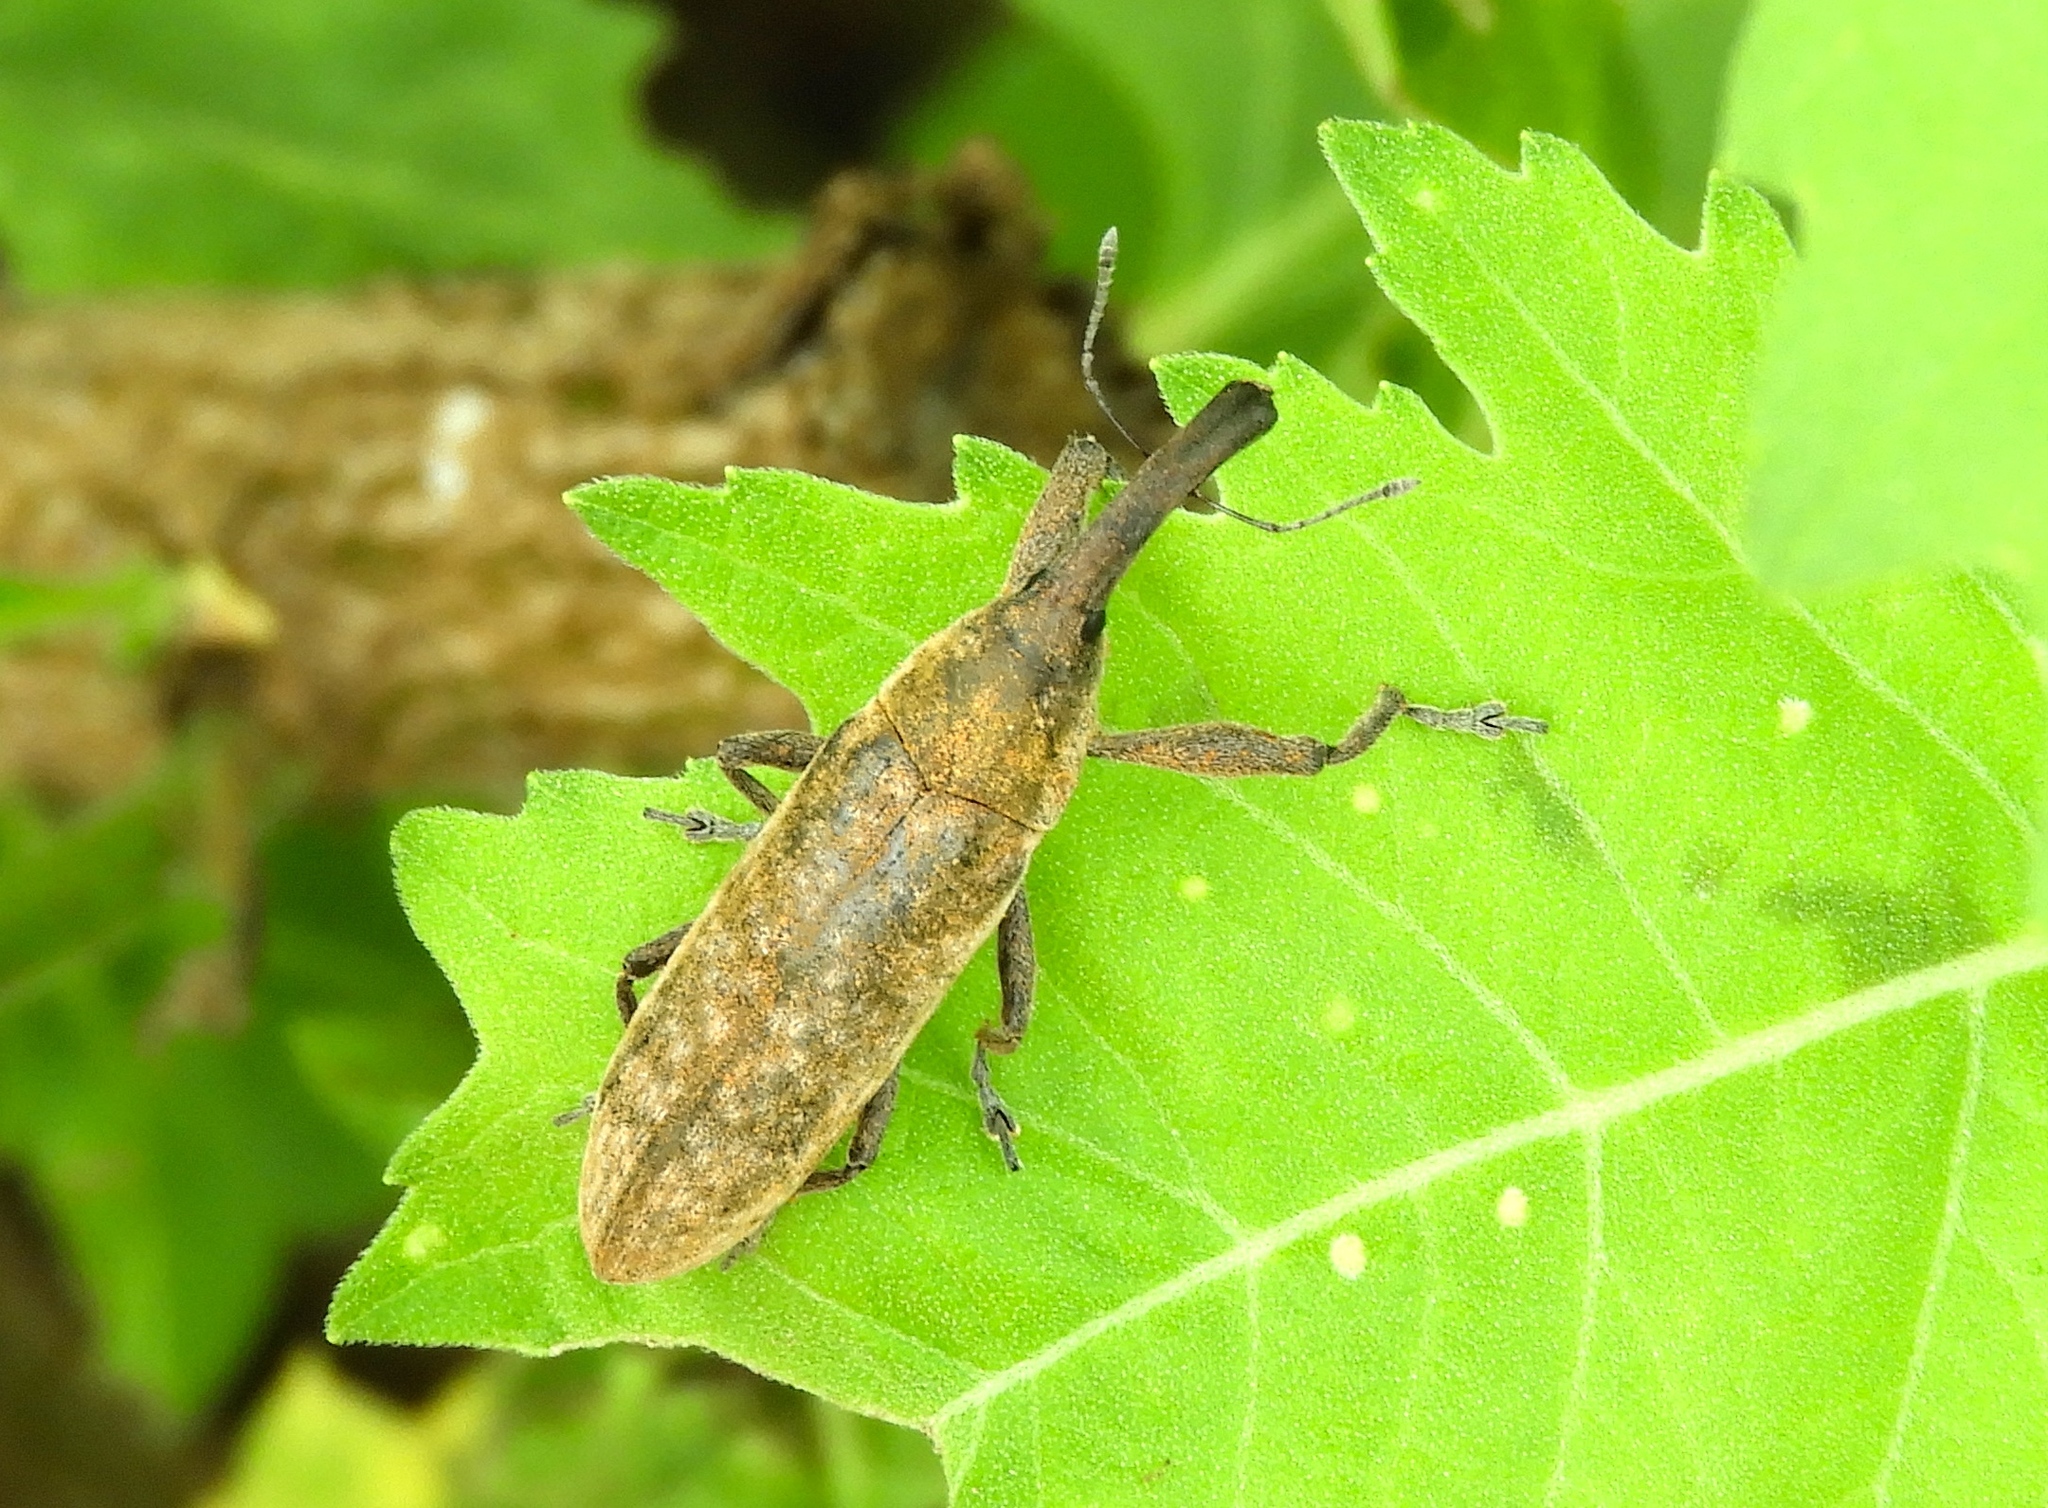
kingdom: Animalia
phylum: Arthropoda
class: Insecta
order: Coleoptera
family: Curculionidae
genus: Lixus
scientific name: Lixus
